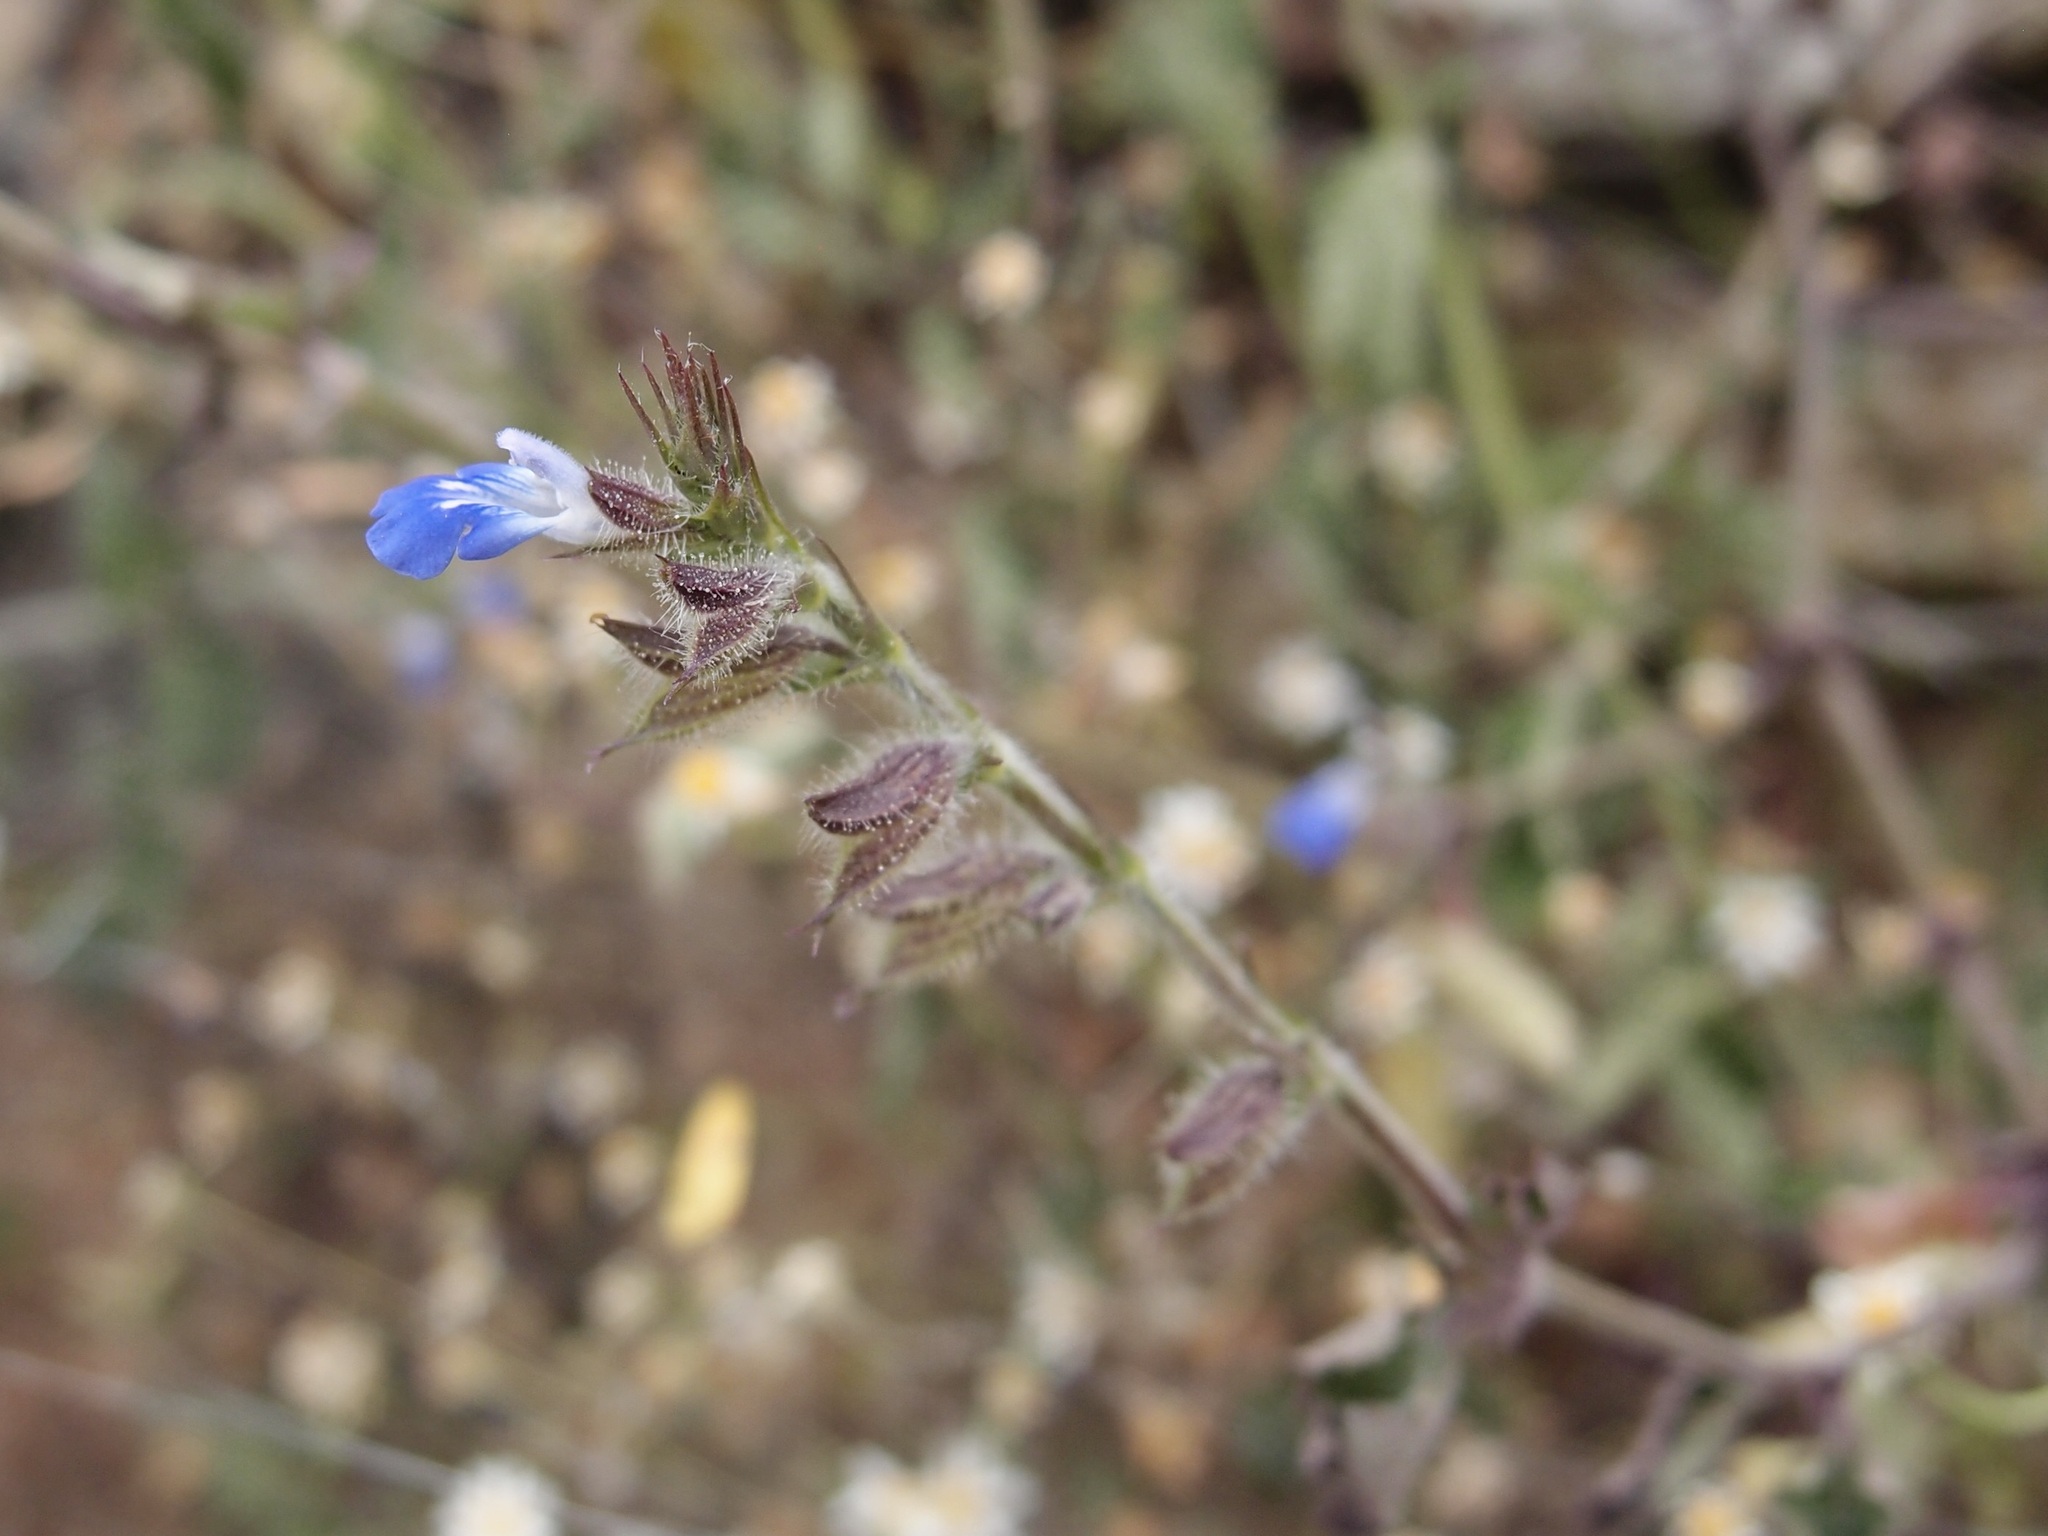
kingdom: Plantae
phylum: Tracheophyta
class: Magnoliopsida
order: Lamiales
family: Lamiaceae
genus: Salvia
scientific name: Salvia misella
